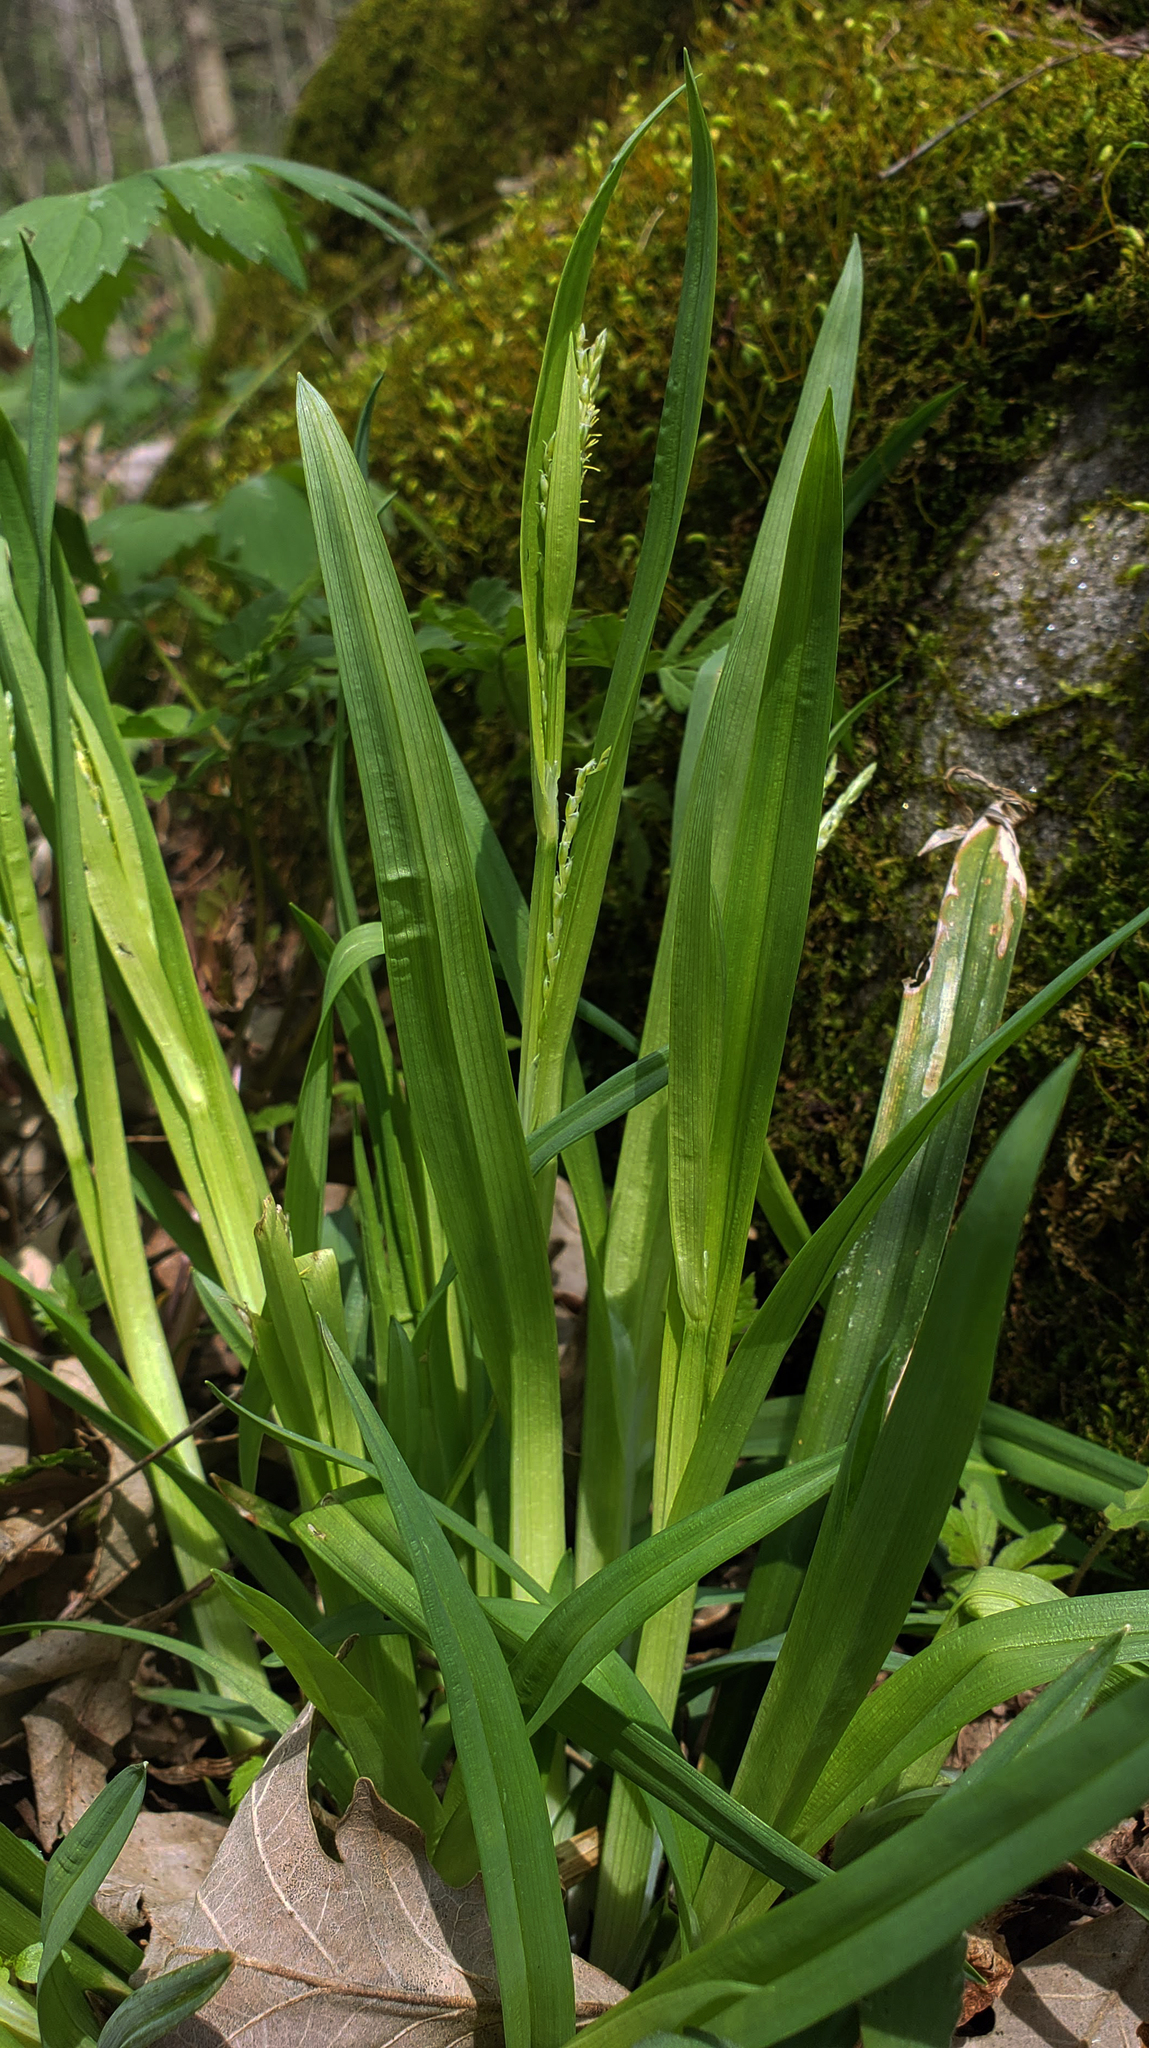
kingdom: Plantae
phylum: Tracheophyta
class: Liliopsida
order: Poales
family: Cyperaceae
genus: Carex
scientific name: Carex albursina
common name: Blunt-scale wood sedge
